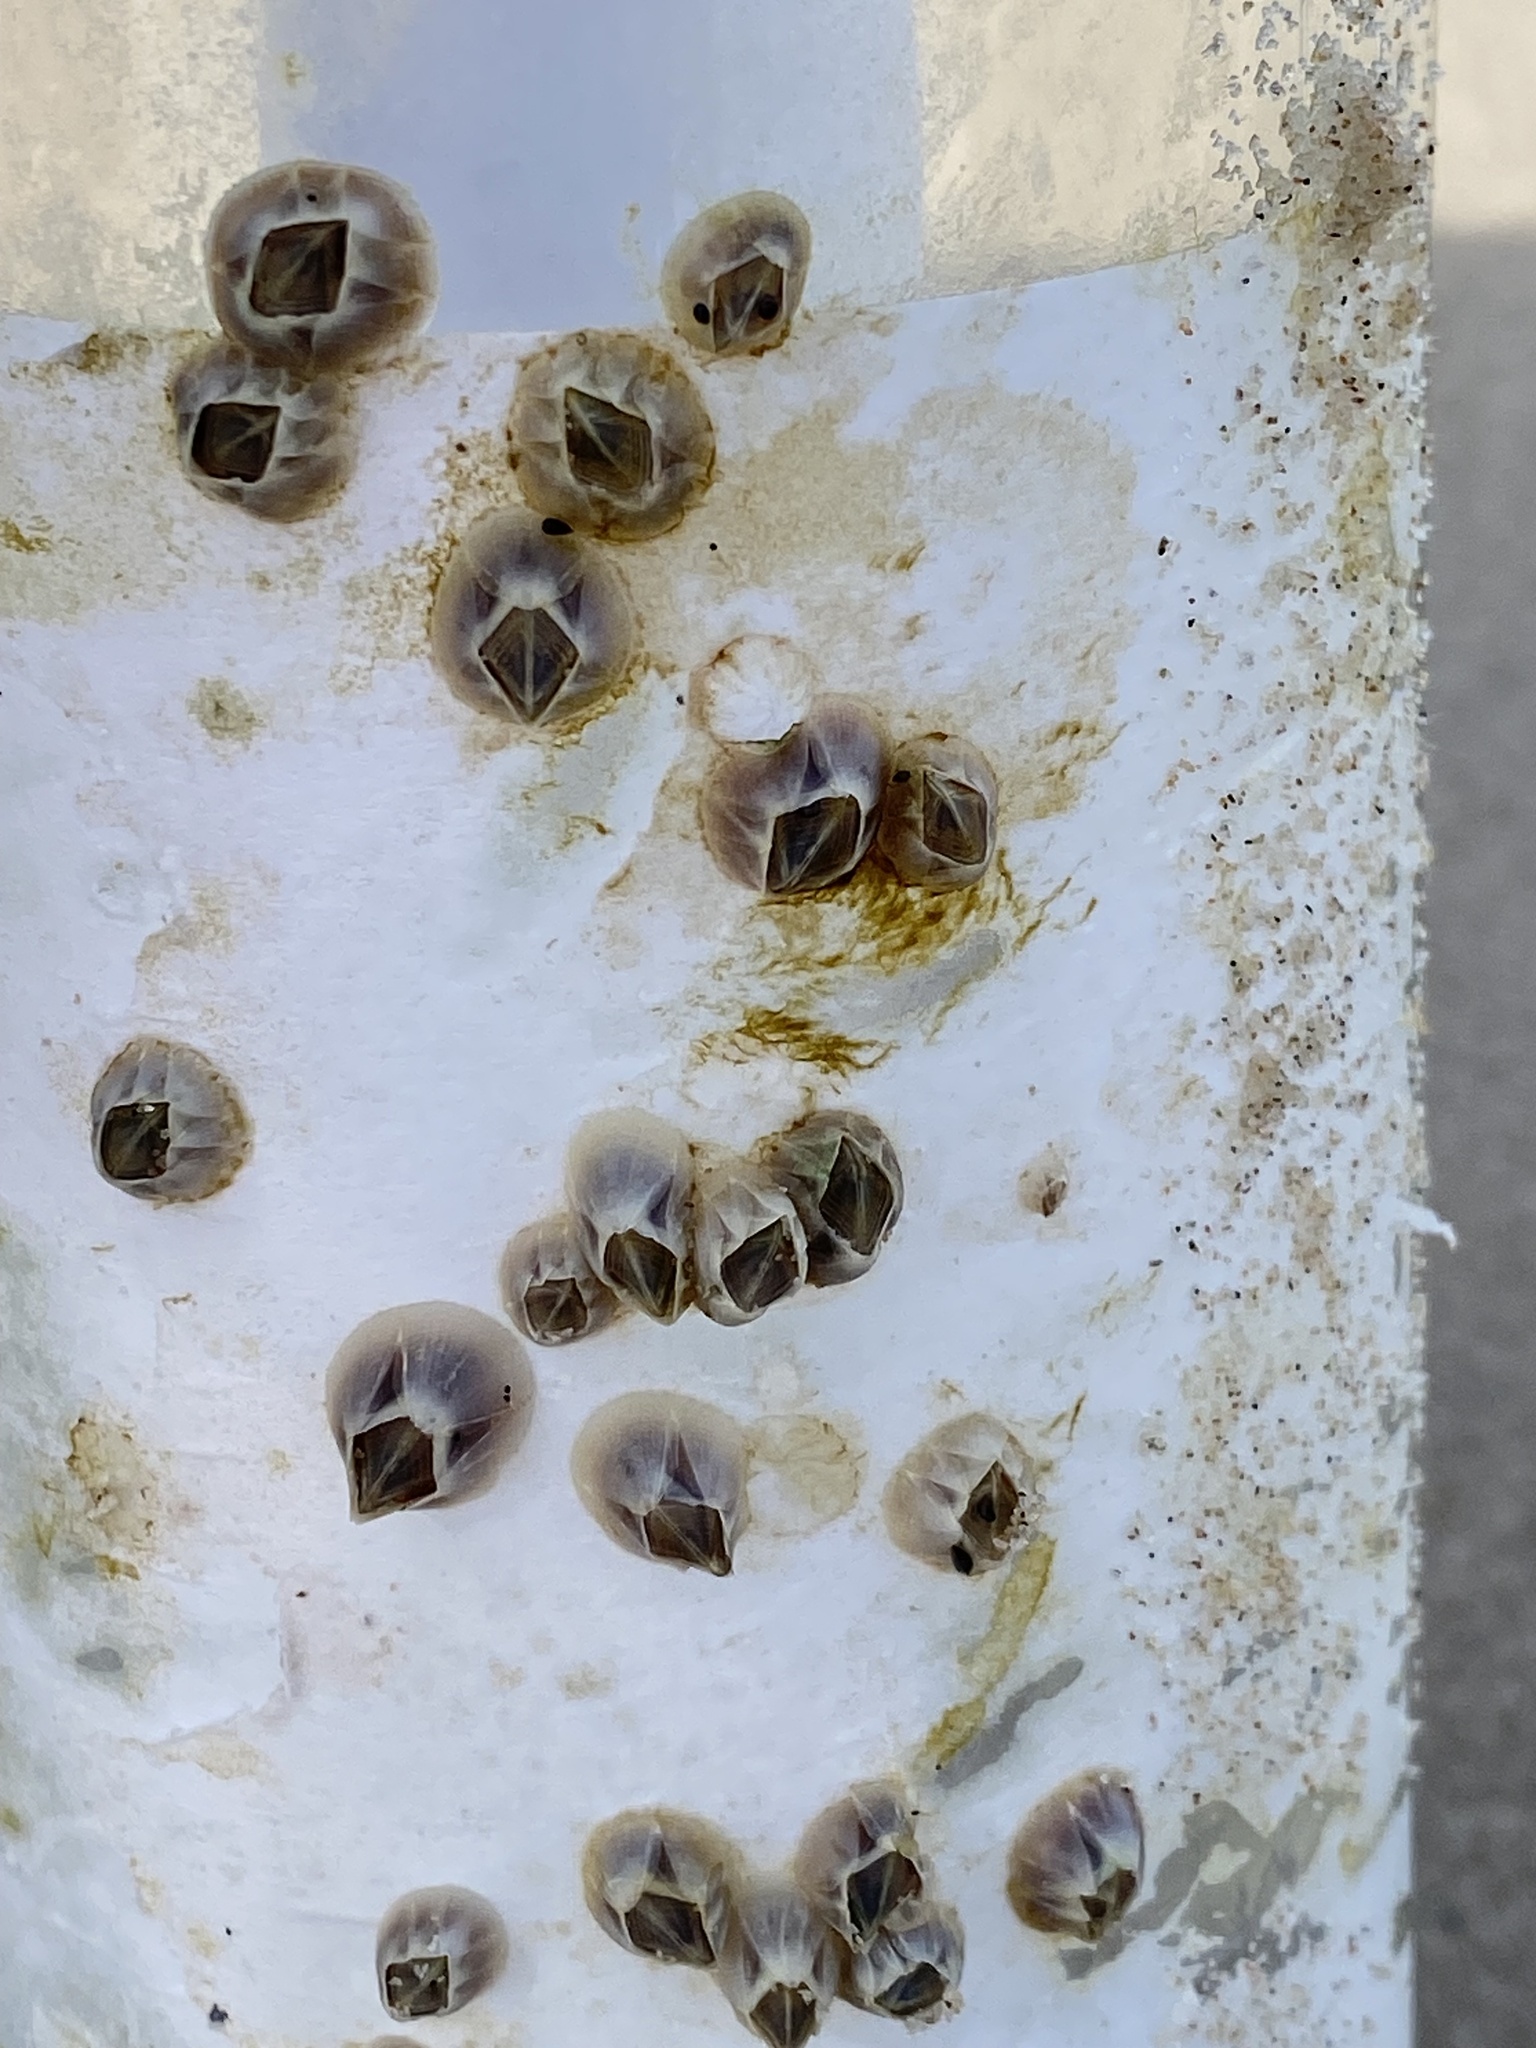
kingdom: Animalia
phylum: Arthropoda
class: Maxillopoda
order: Sessilia
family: Balanidae
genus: Amphibalanus
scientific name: Amphibalanus improvisus
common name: Bay barnacle
